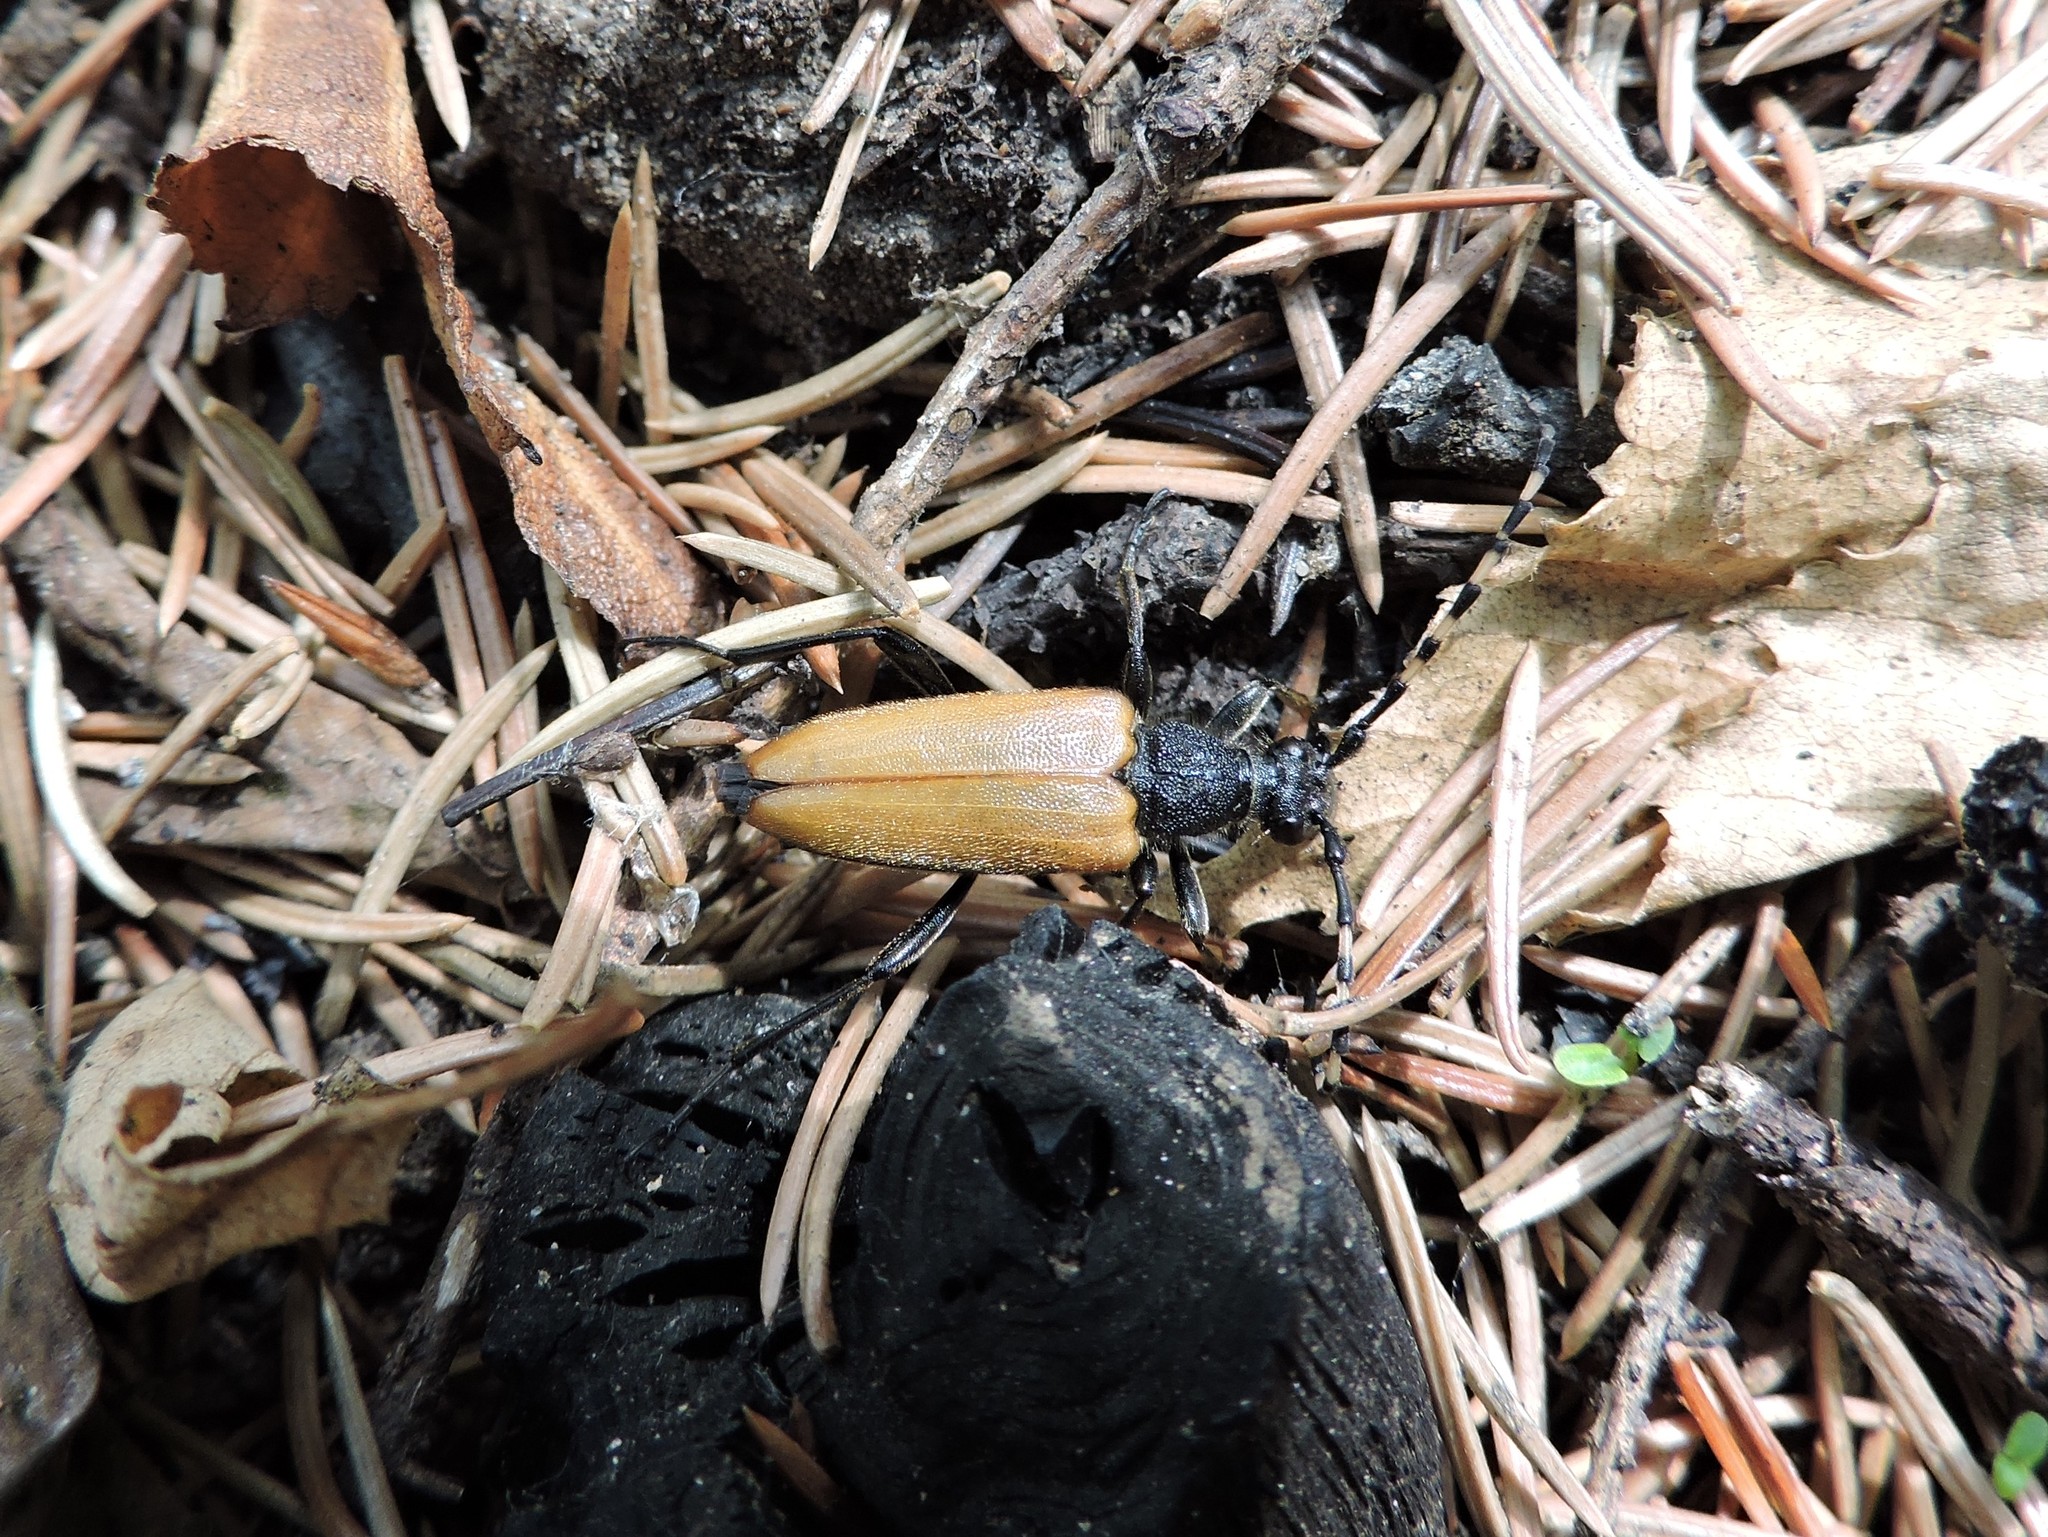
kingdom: Animalia
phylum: Arthropoda
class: Insecta
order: Coleoptera
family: Cerambycidae
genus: Stictoleptura
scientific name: Stictoleptura variicornis
